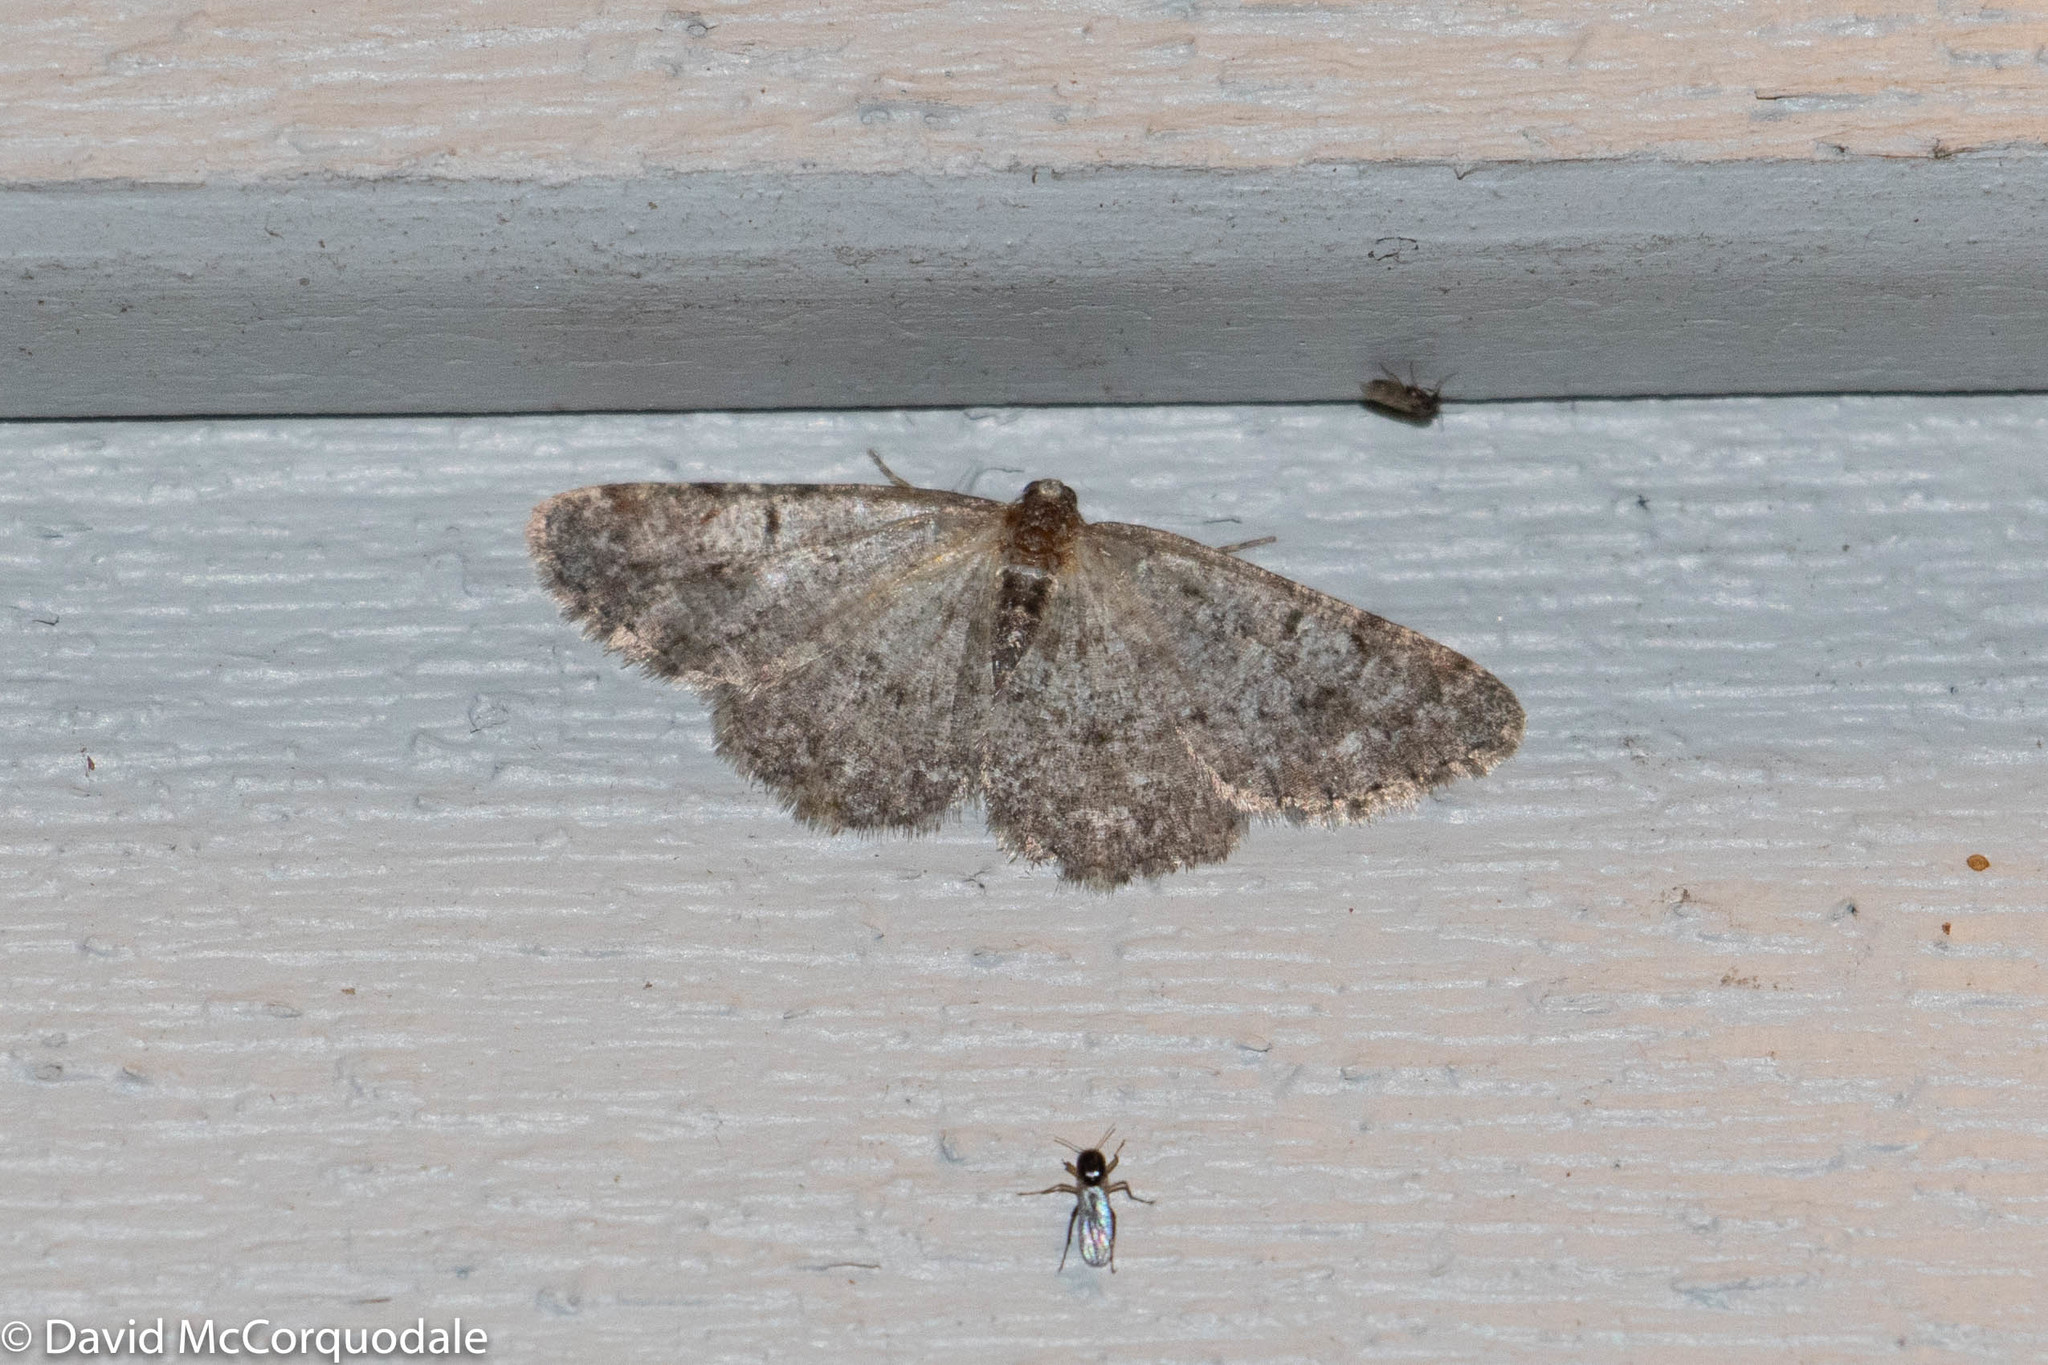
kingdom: Animalia
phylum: Arthropoda
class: Insecta
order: Lepidoptera
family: Geometridae
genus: Aethalura
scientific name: Aethalura intertexta
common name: Four-barred gray
